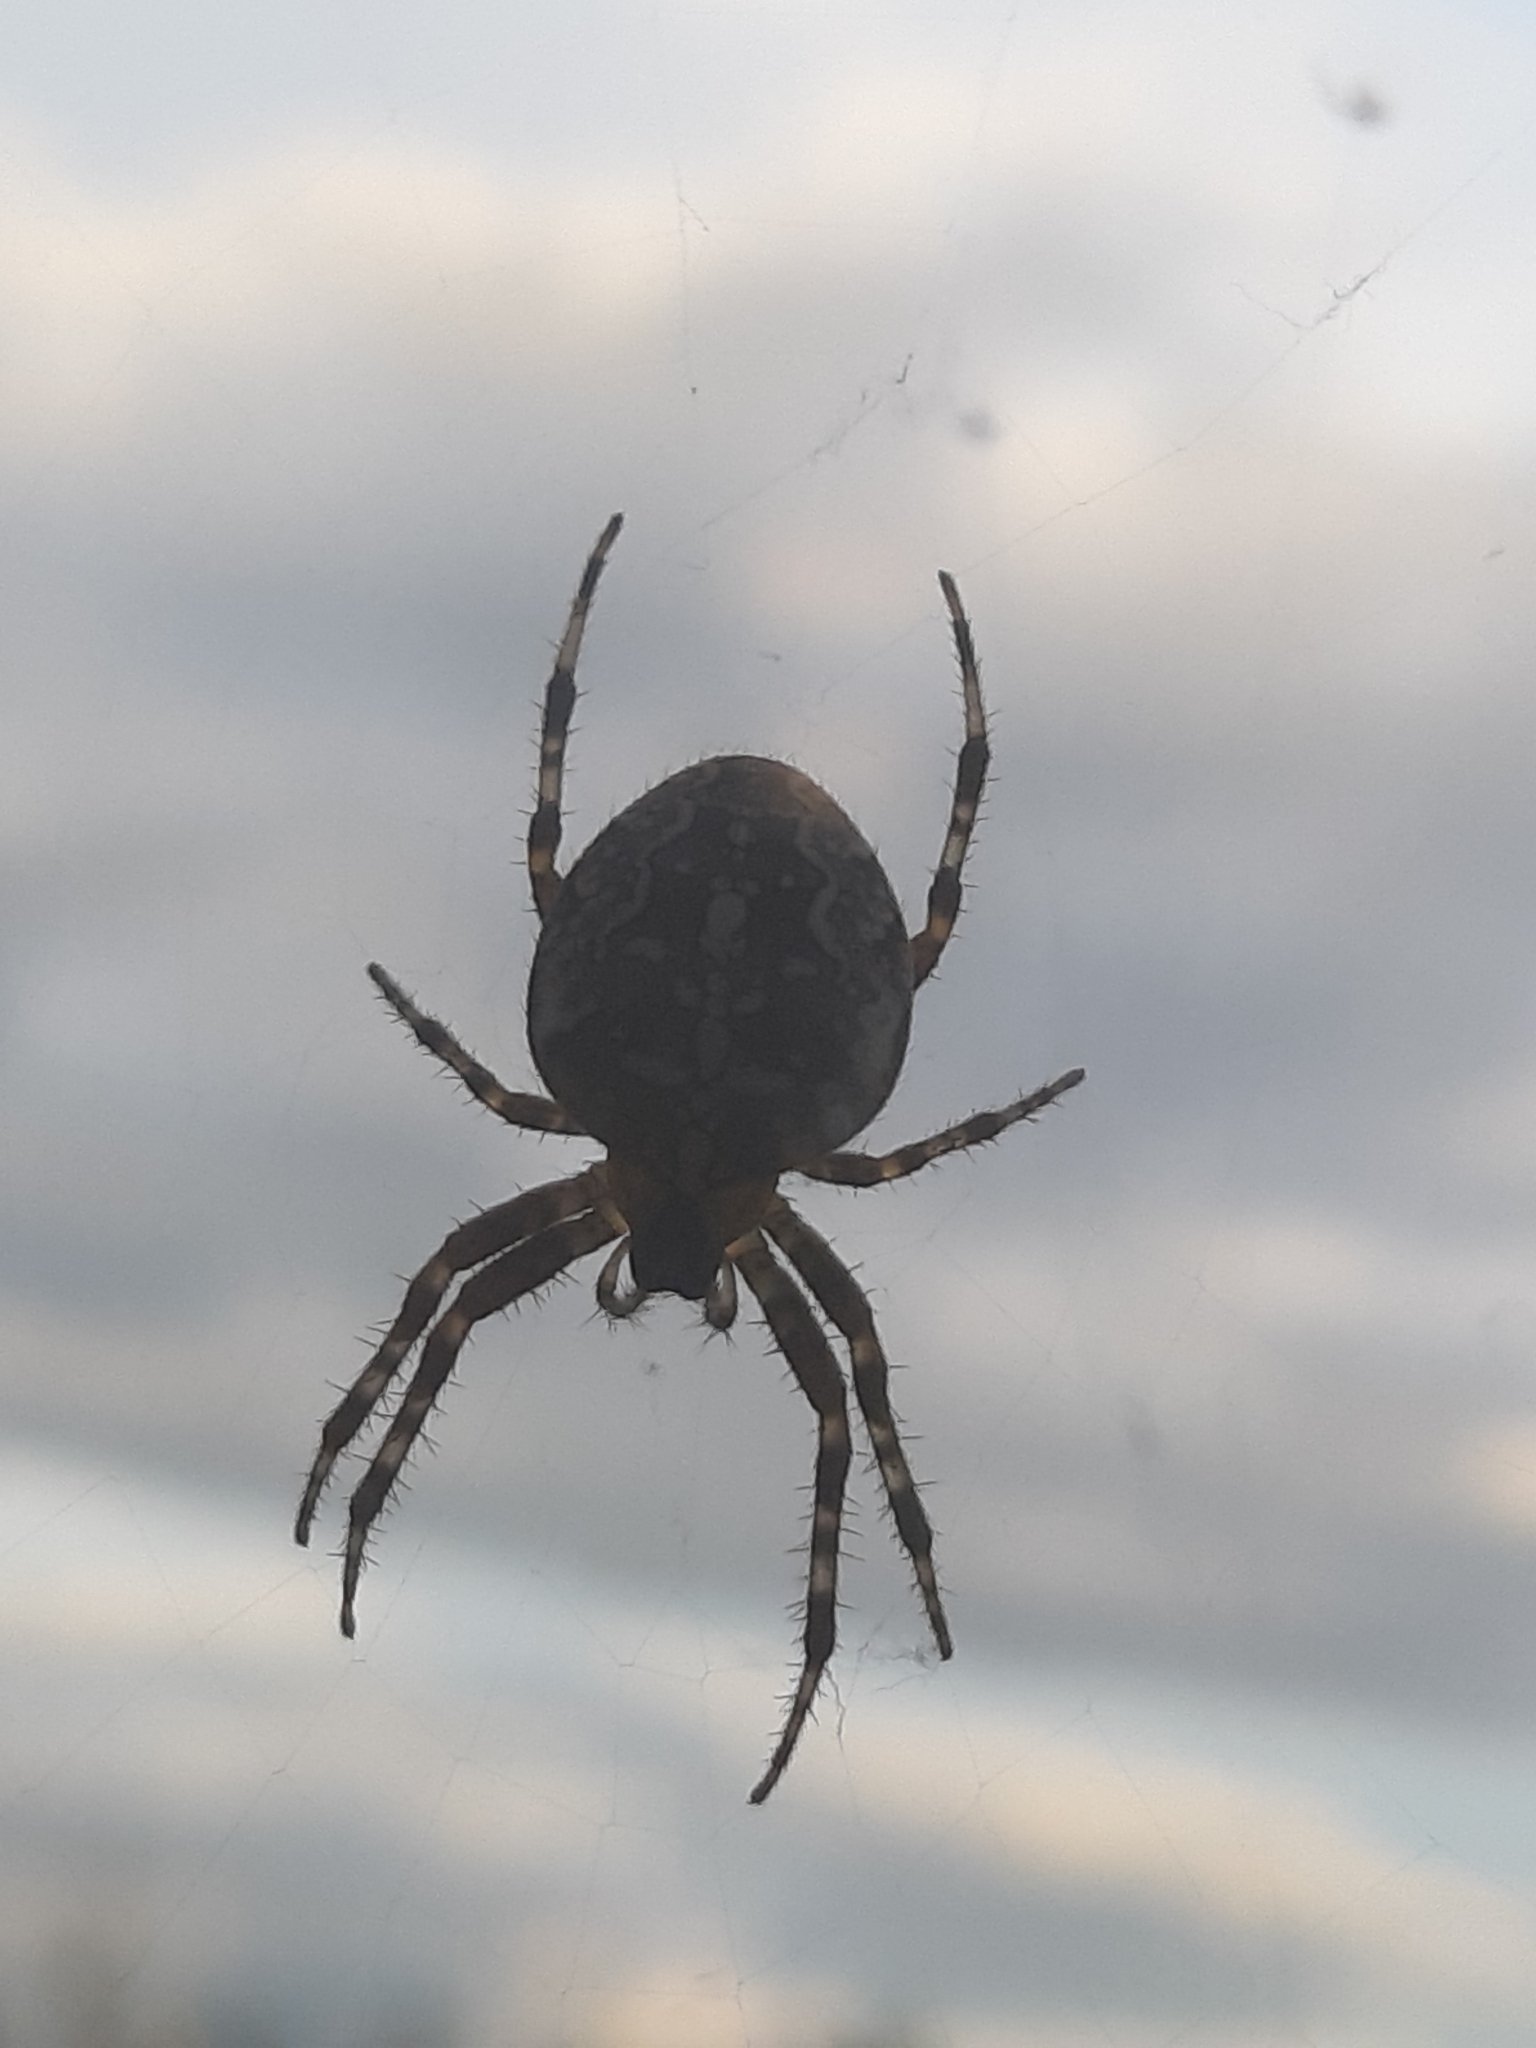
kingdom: Animalia
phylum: Arthropoda
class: Arachnida
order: Araneae
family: Araneidae
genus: Araneus
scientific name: Araneus diadematus
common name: Cross orbweaver
